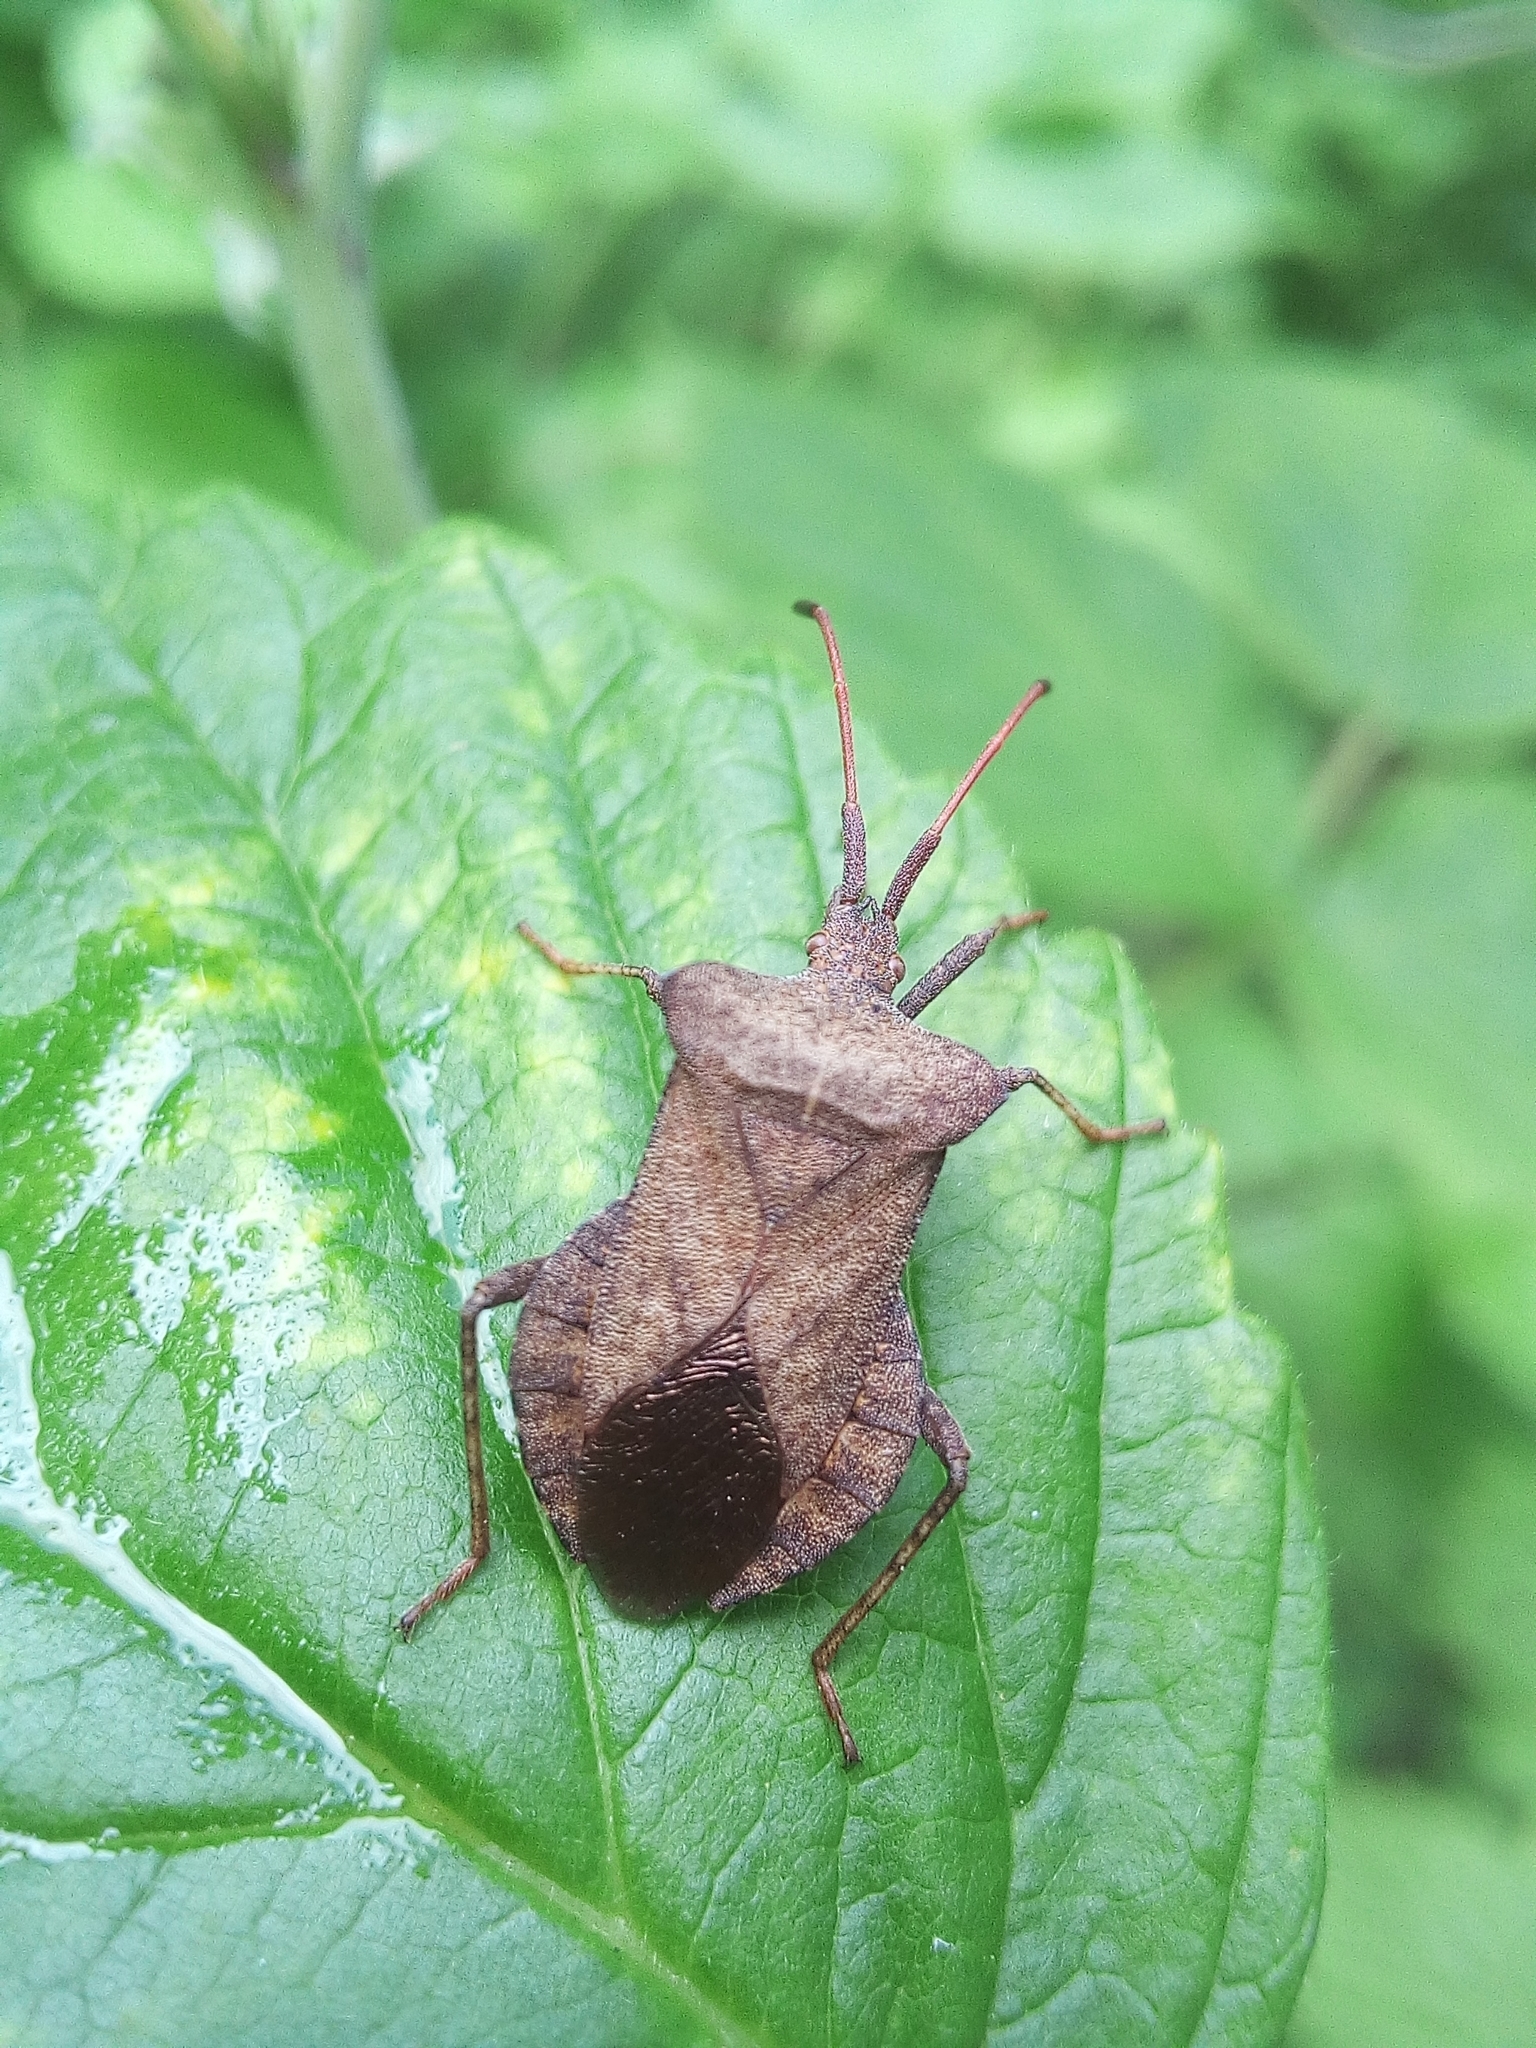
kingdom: Animalia
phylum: Arthropoda
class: Insecta
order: Hemiptera
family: Coreidae
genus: Coreus
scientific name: Coreus marginatus
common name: Dock bug
